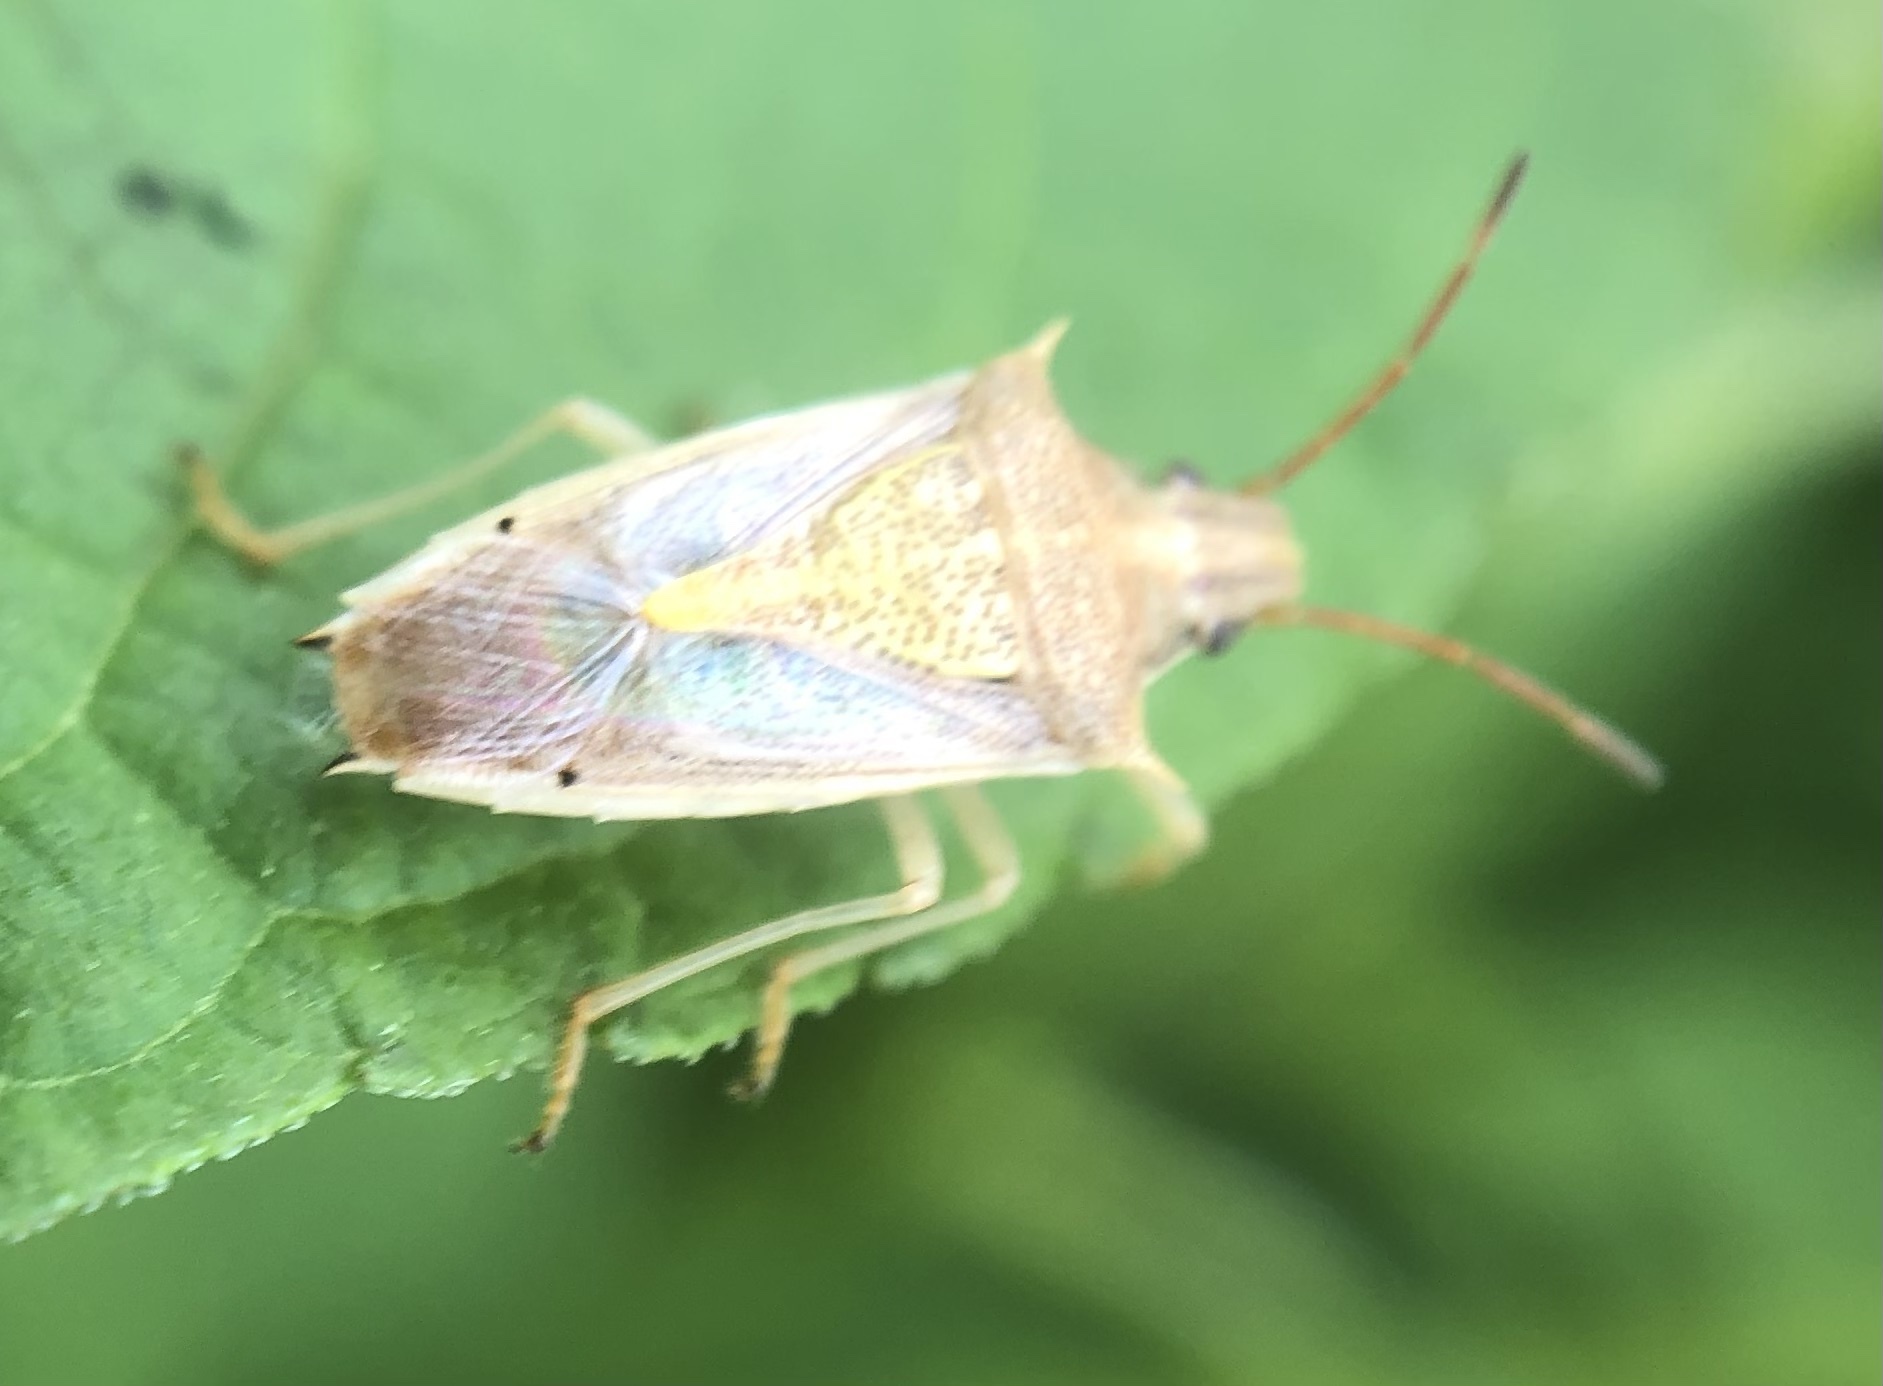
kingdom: Animalia
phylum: Arthropoda
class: Insecta
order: Hemiptera
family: Pentatomidae
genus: Oebalus
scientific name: Oebalus pugnax
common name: Rice stink bug
